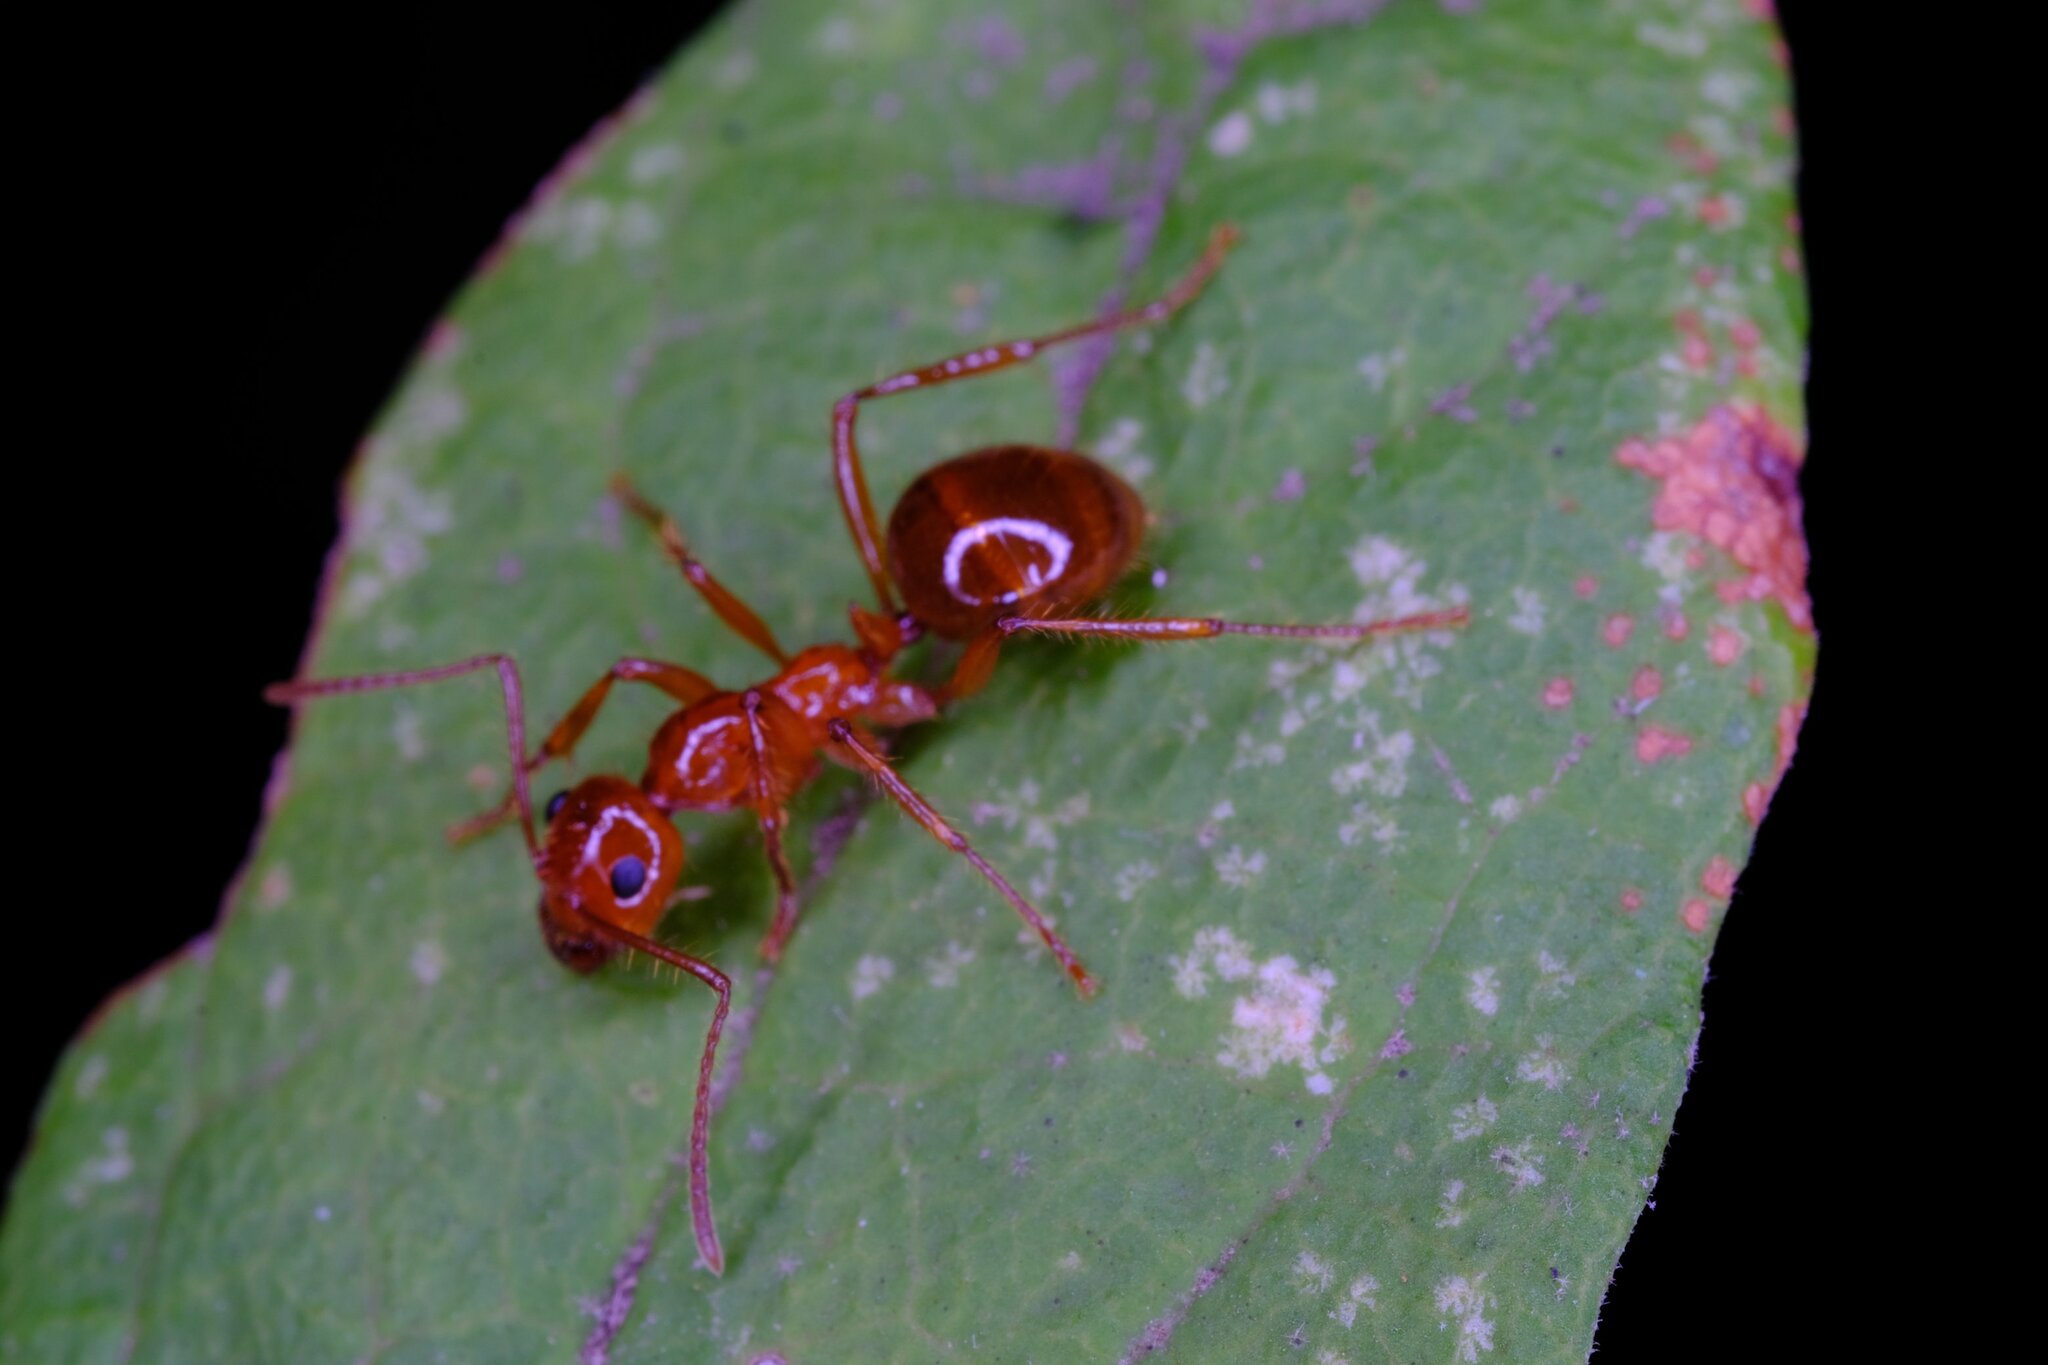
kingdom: Animalia
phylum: Arthropoda
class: Insecta
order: Hymenoptera
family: Formicidae
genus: Notoncus
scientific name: Notoncus spinisquamis
